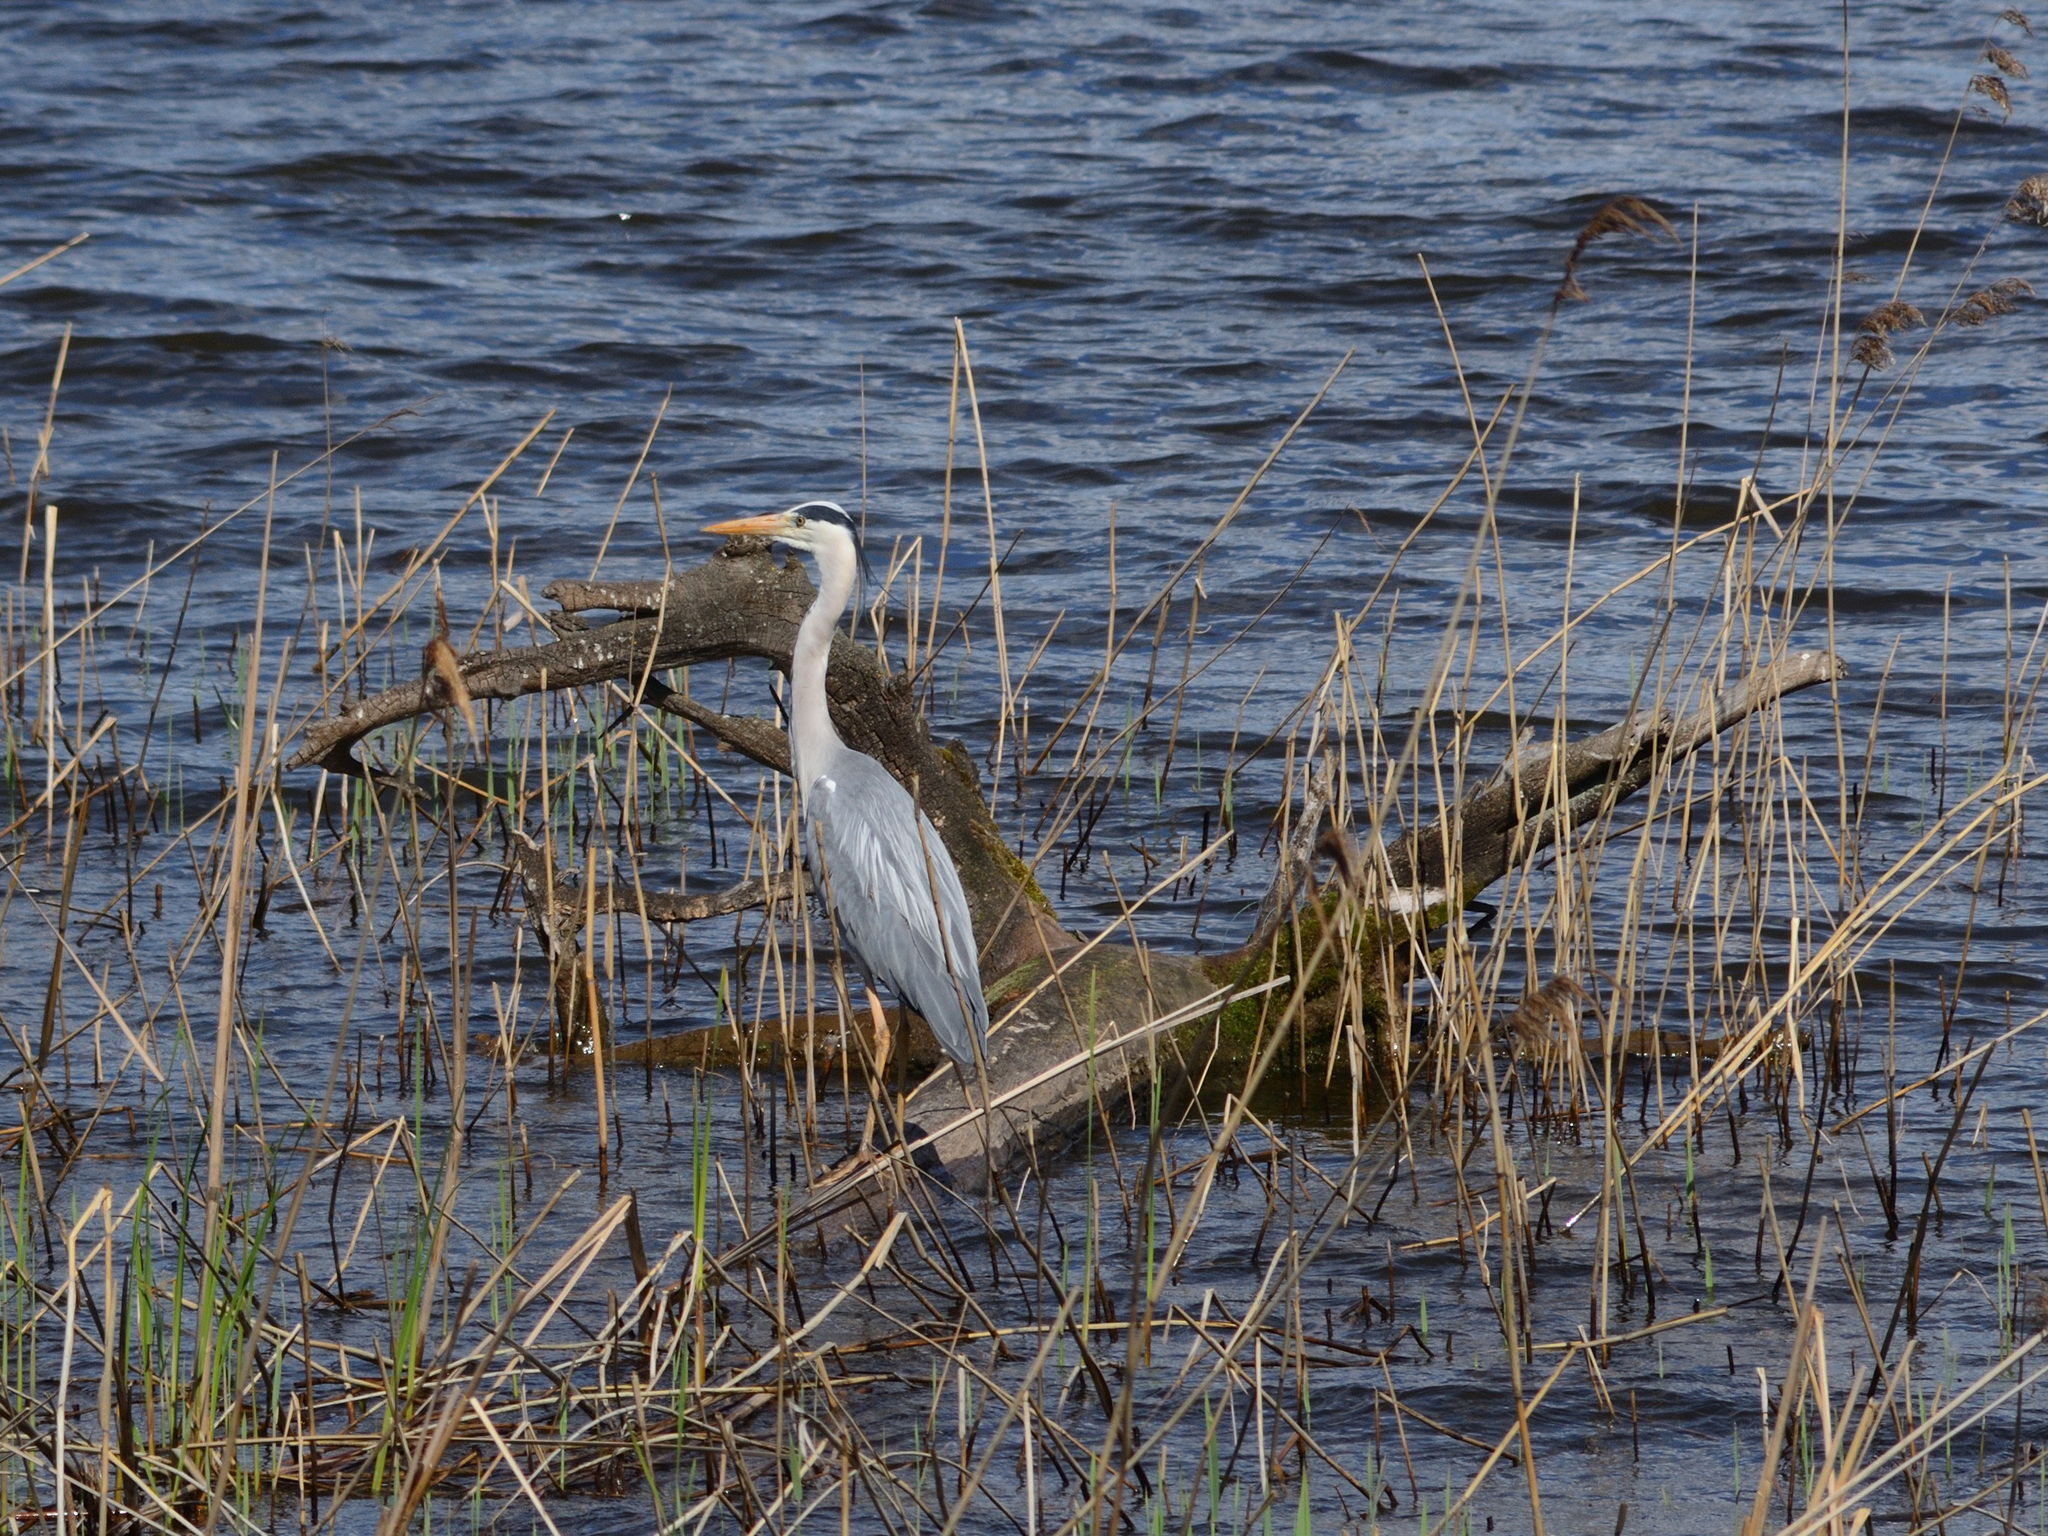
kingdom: Animalia
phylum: Chordata
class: Aves
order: Pelecaniformes
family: Ardeidae
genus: Ardea
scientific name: Ardea cinerea
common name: Grey heron
